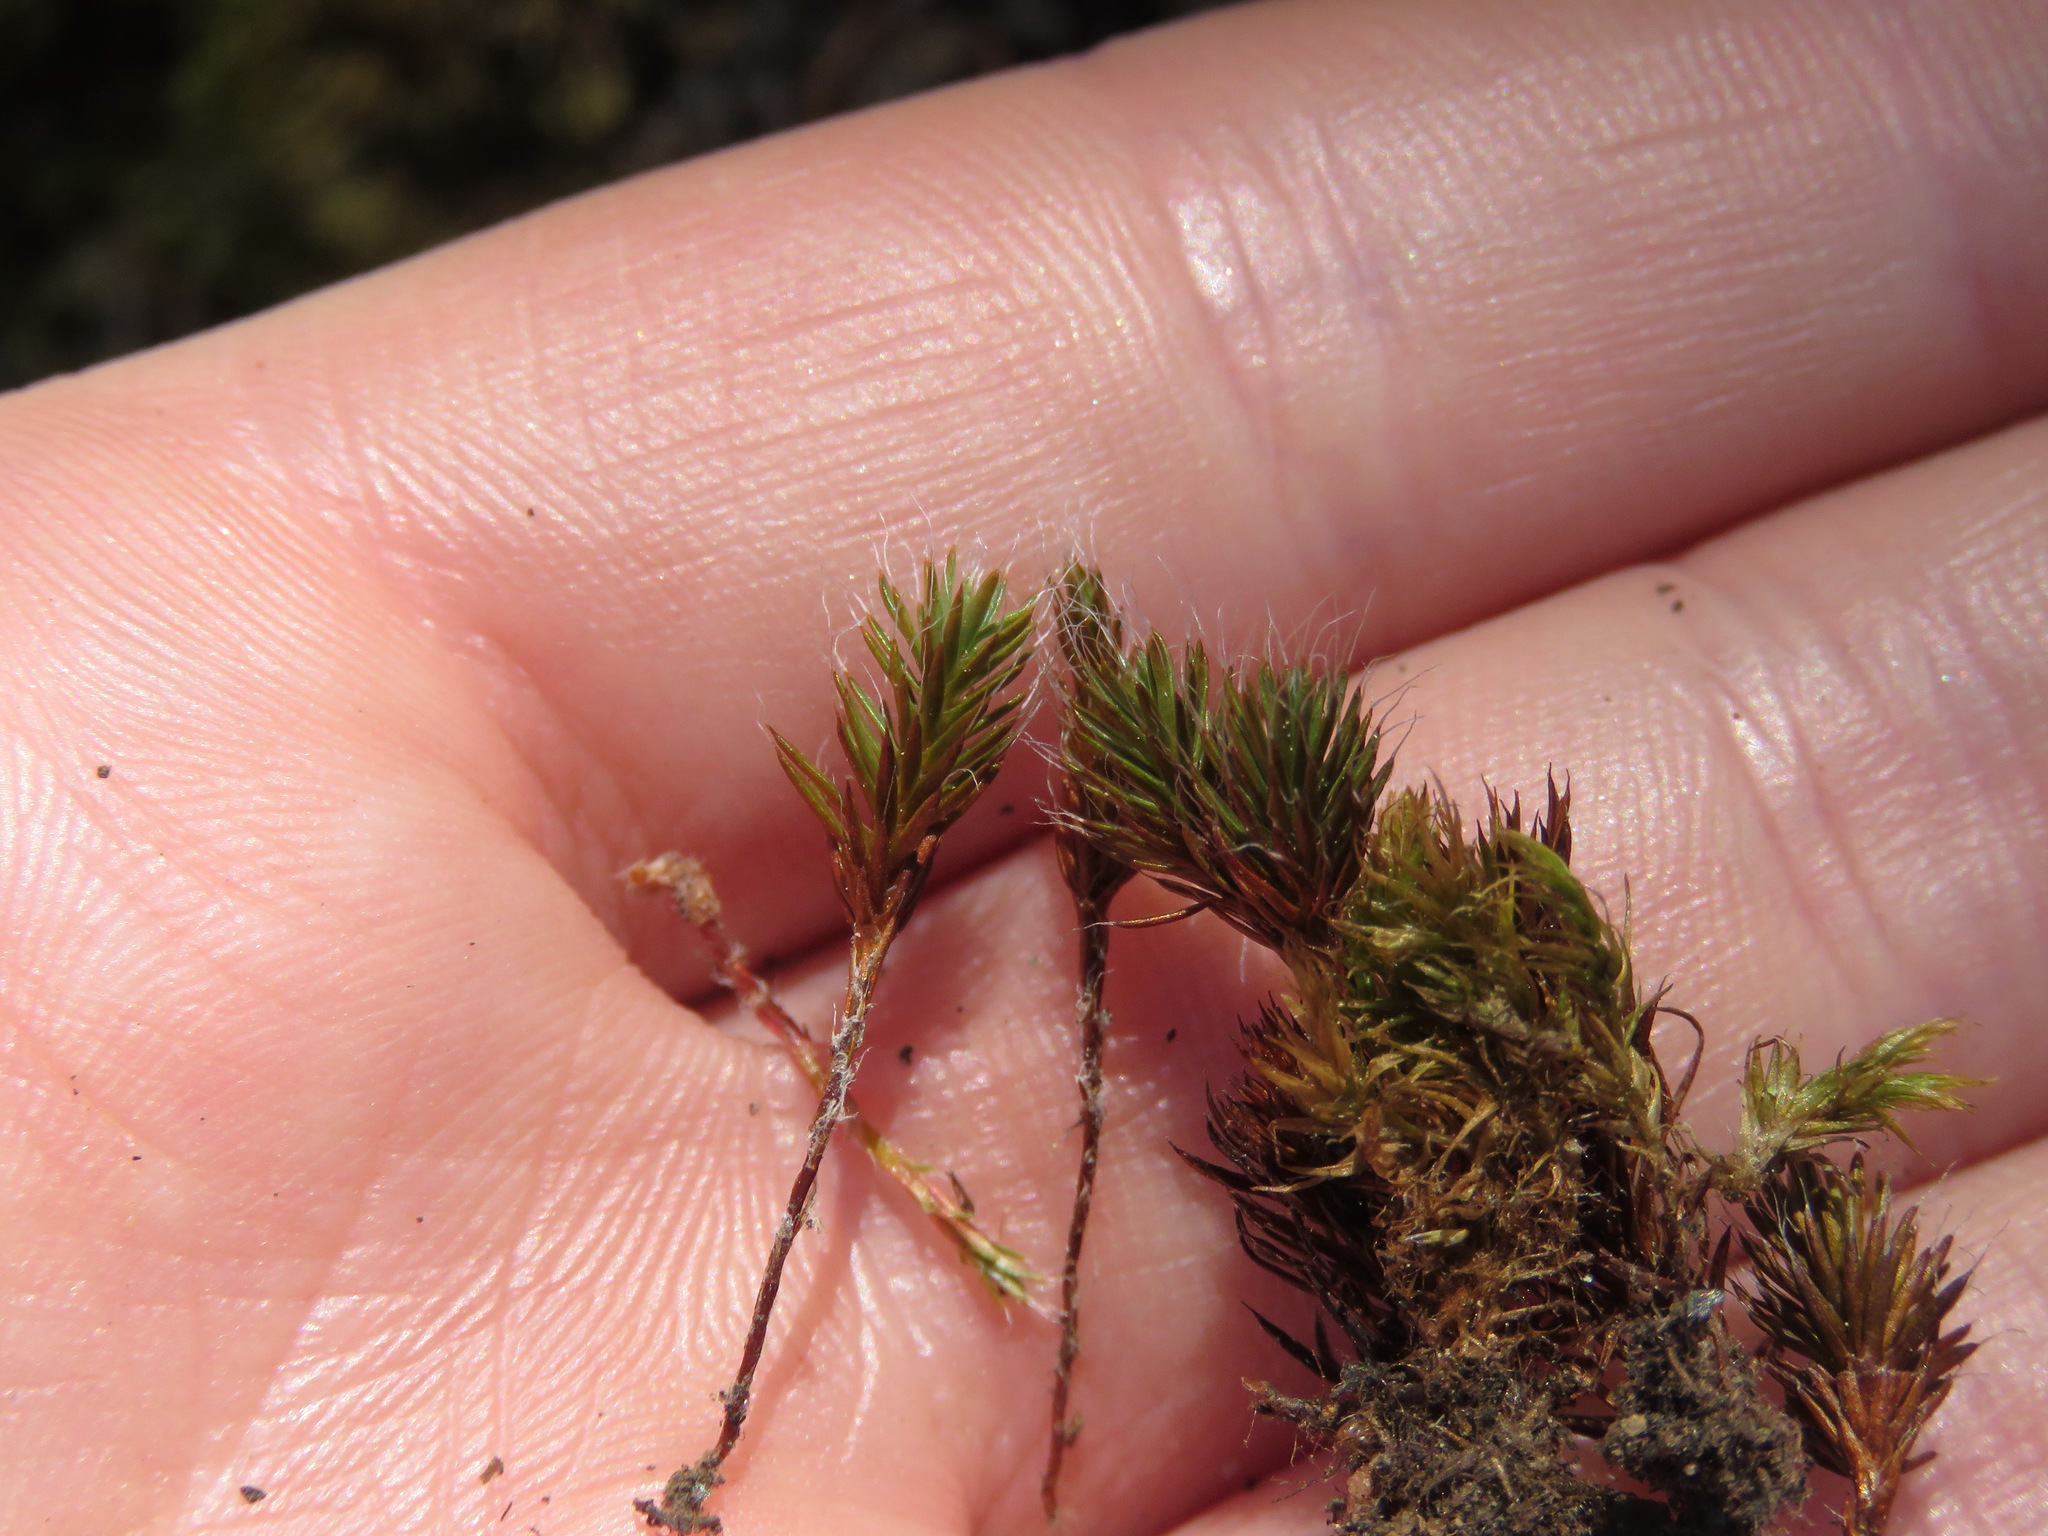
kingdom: Plantae
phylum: Bryophyta
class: Polytrichopsida
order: Polytrichales
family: Polytrichaceae
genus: Polytrichum
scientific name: Polytrichum piliferum
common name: Bristly haircap
